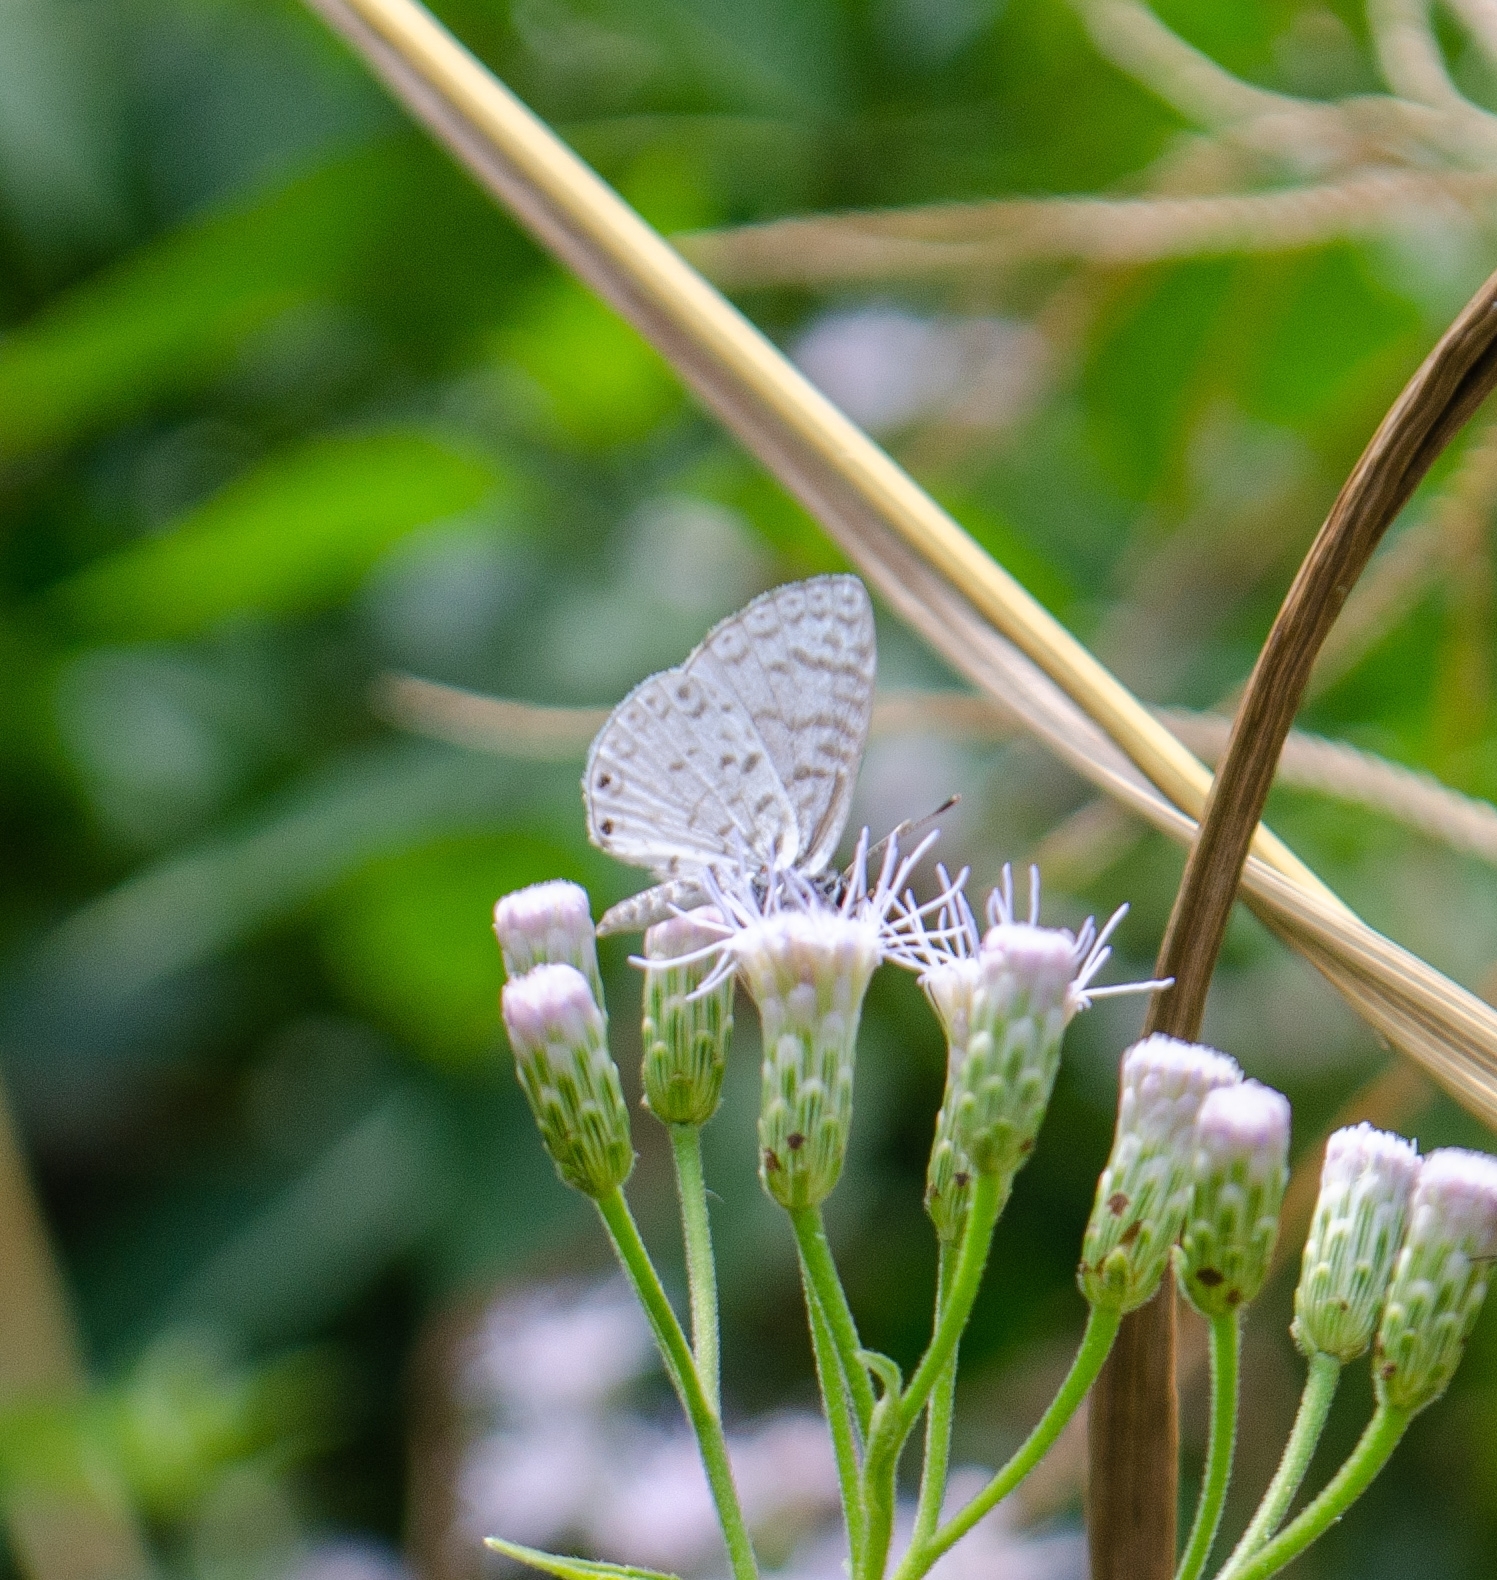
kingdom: Animalia
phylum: Arthropoda
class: Insecta
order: Lepidoptera
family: Lycaenidae
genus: Leptotes
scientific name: Leptotes cassius
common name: Cassius blue
